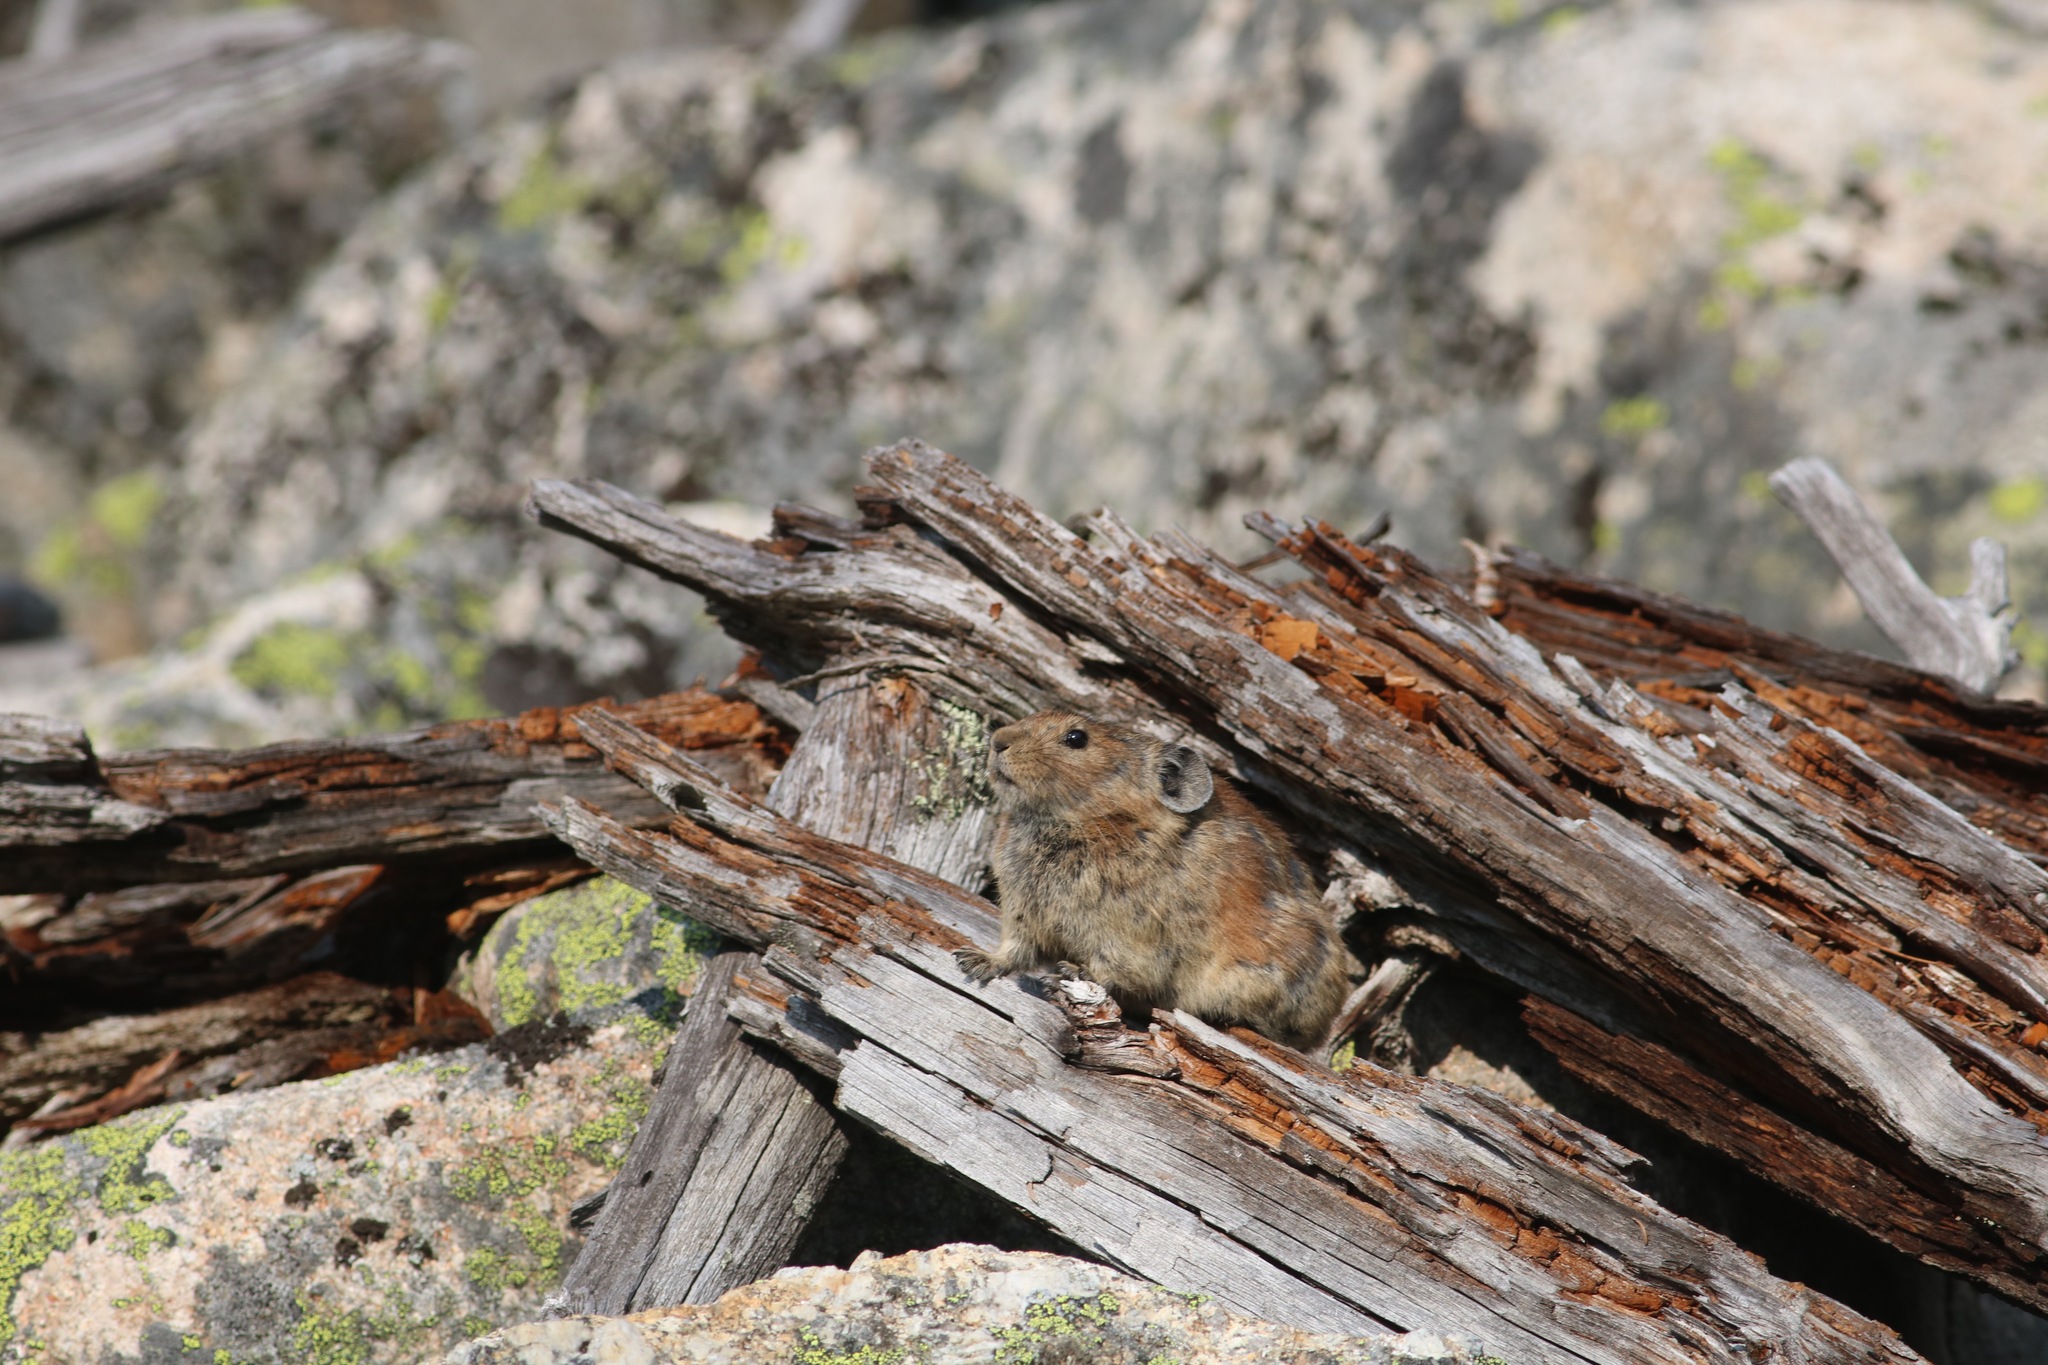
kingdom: Animalia
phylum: Chordata
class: Mammalia
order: Lagomorpha
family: Ochotonidae
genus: Ochotona
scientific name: Ochotona hyperborea
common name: Northern pika
